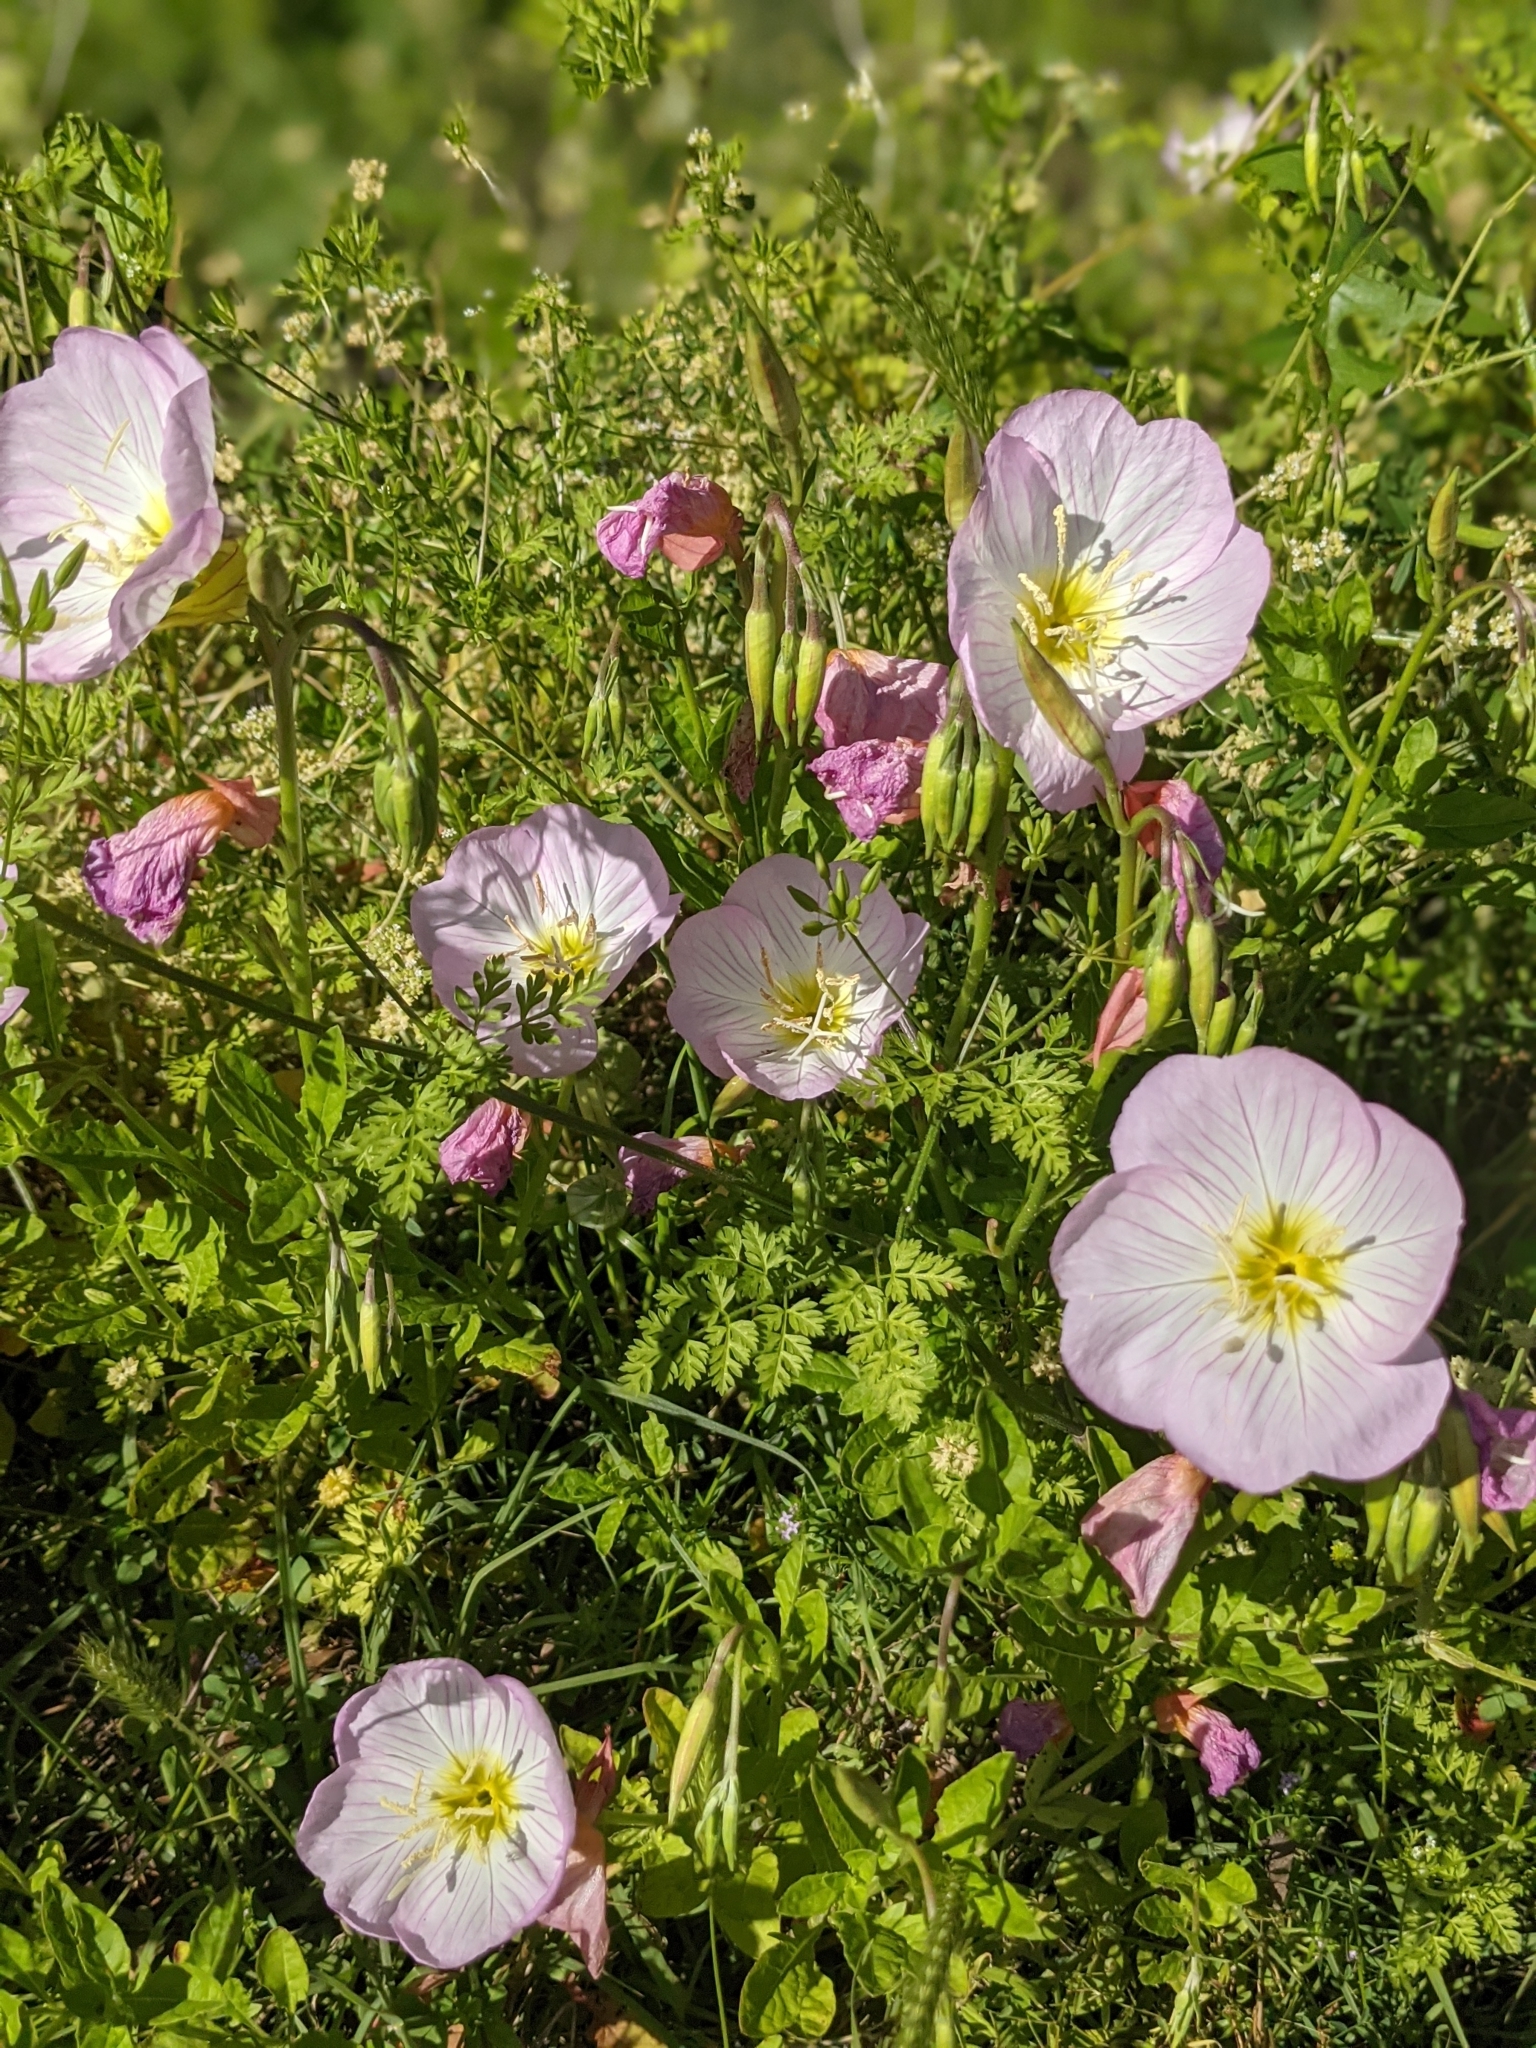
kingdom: Plantae
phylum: Tracheophyta
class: Magnoliopsida
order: Myrtales
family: Onagraceae
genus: Oenothera
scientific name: Oenothera speciosa
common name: White evening-primrose
